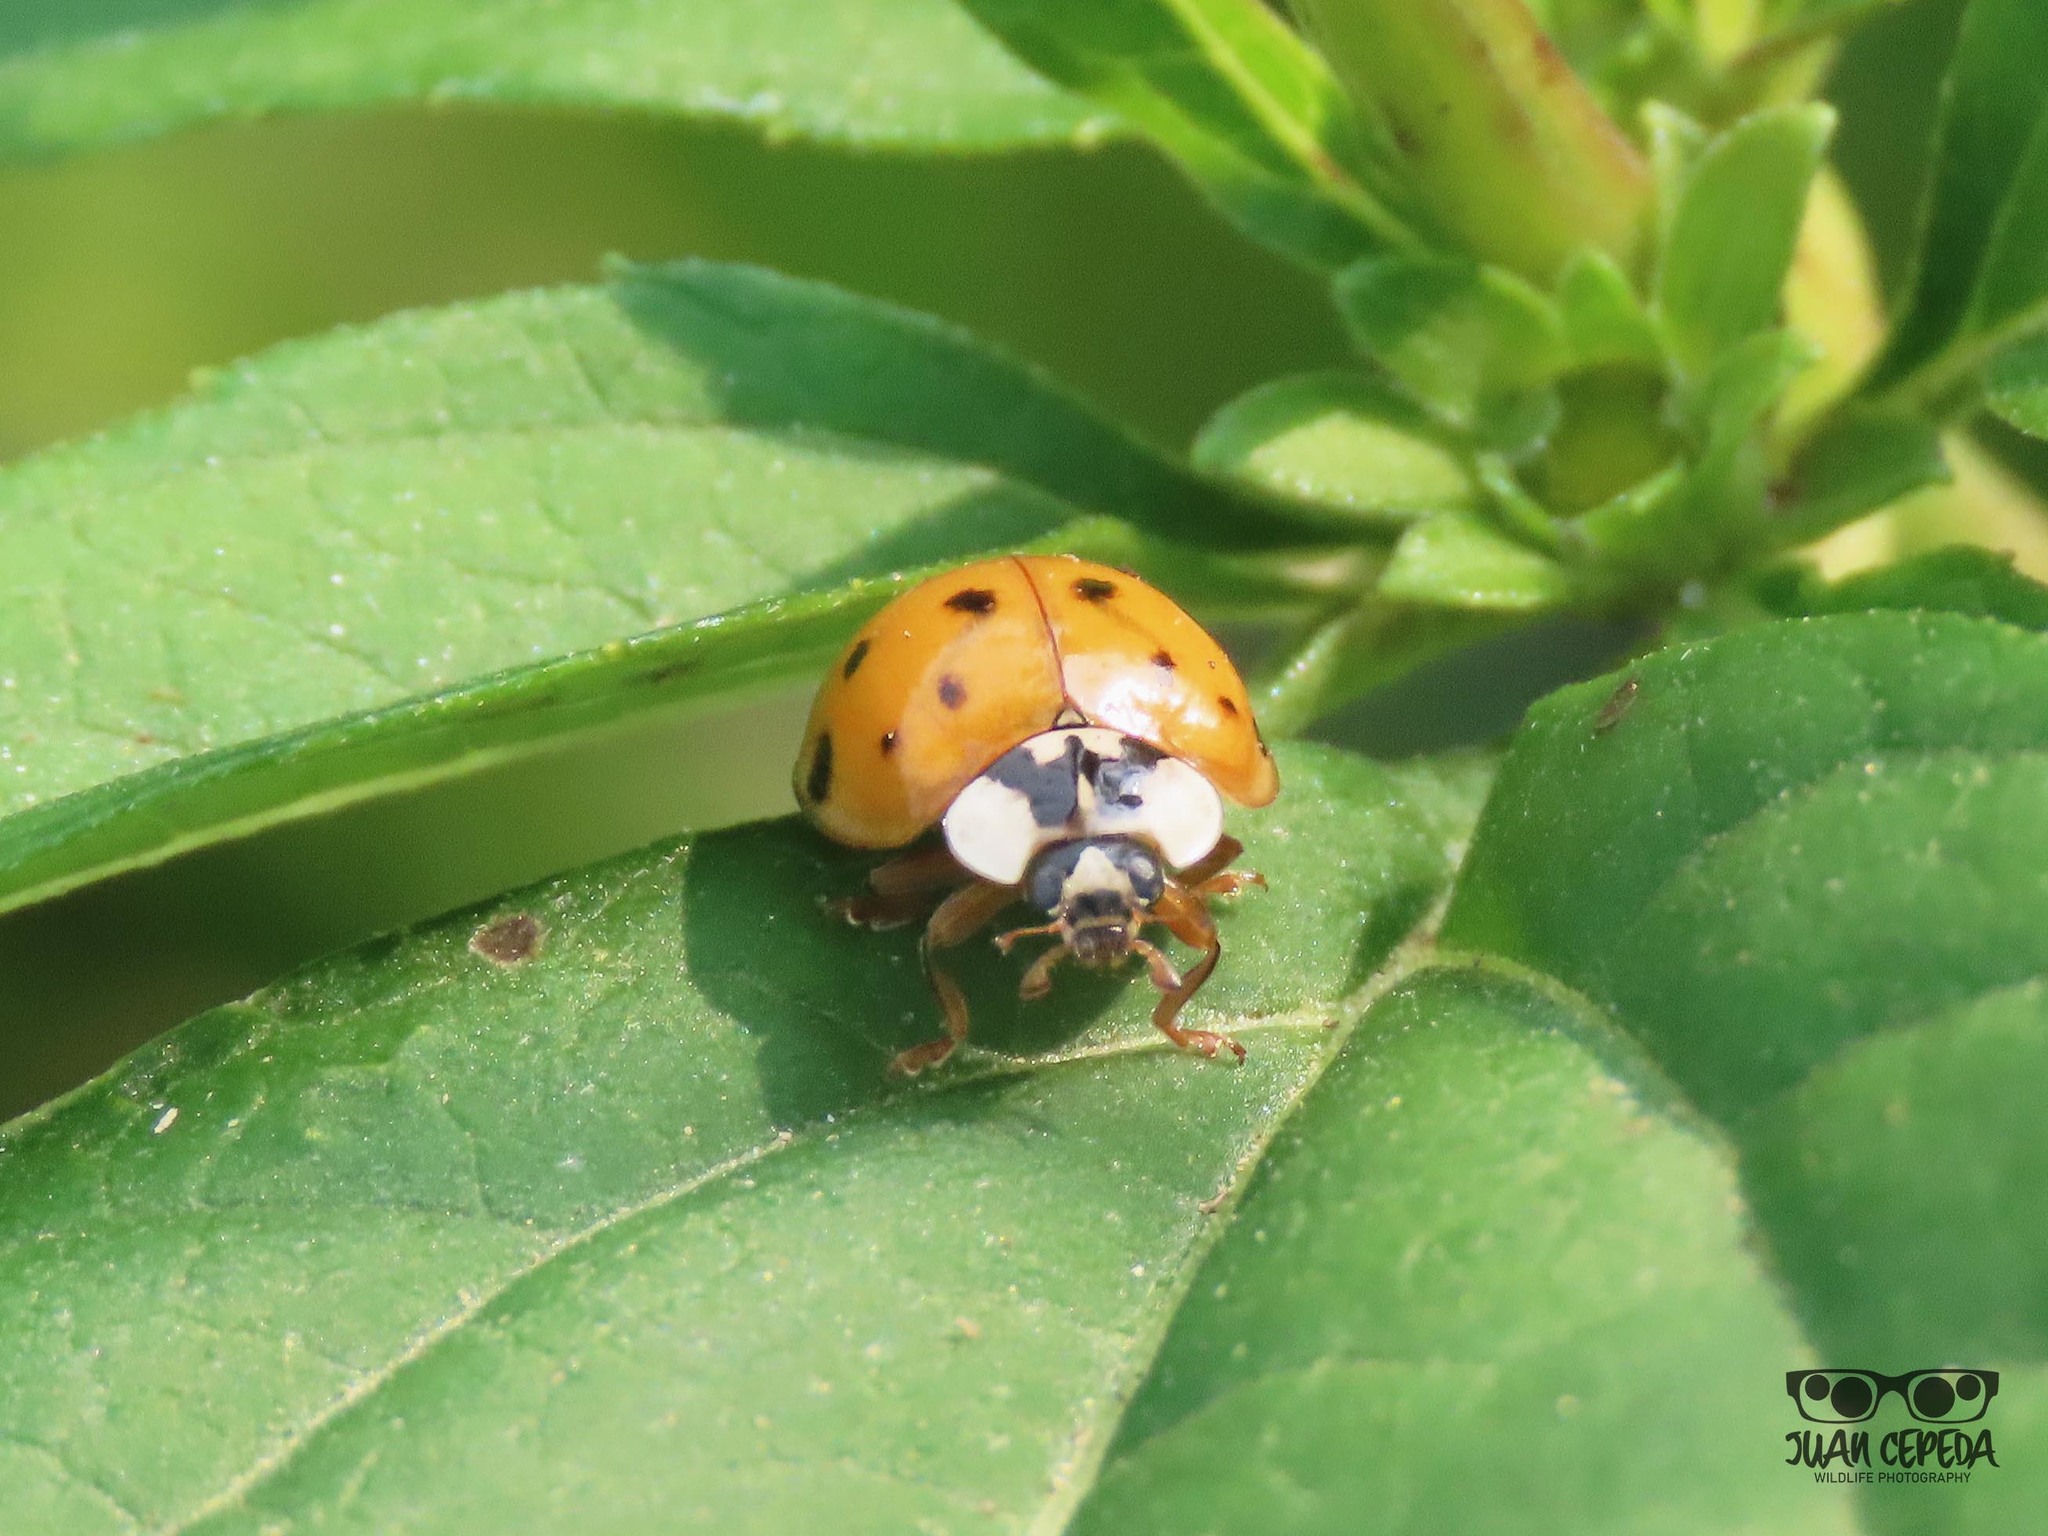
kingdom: Animalia
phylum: Arthropoda
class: Insecta
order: Coleoptera
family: Coccinellidae
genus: Harmonia
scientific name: Harmonia axyridis
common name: Harlequin ladybird
